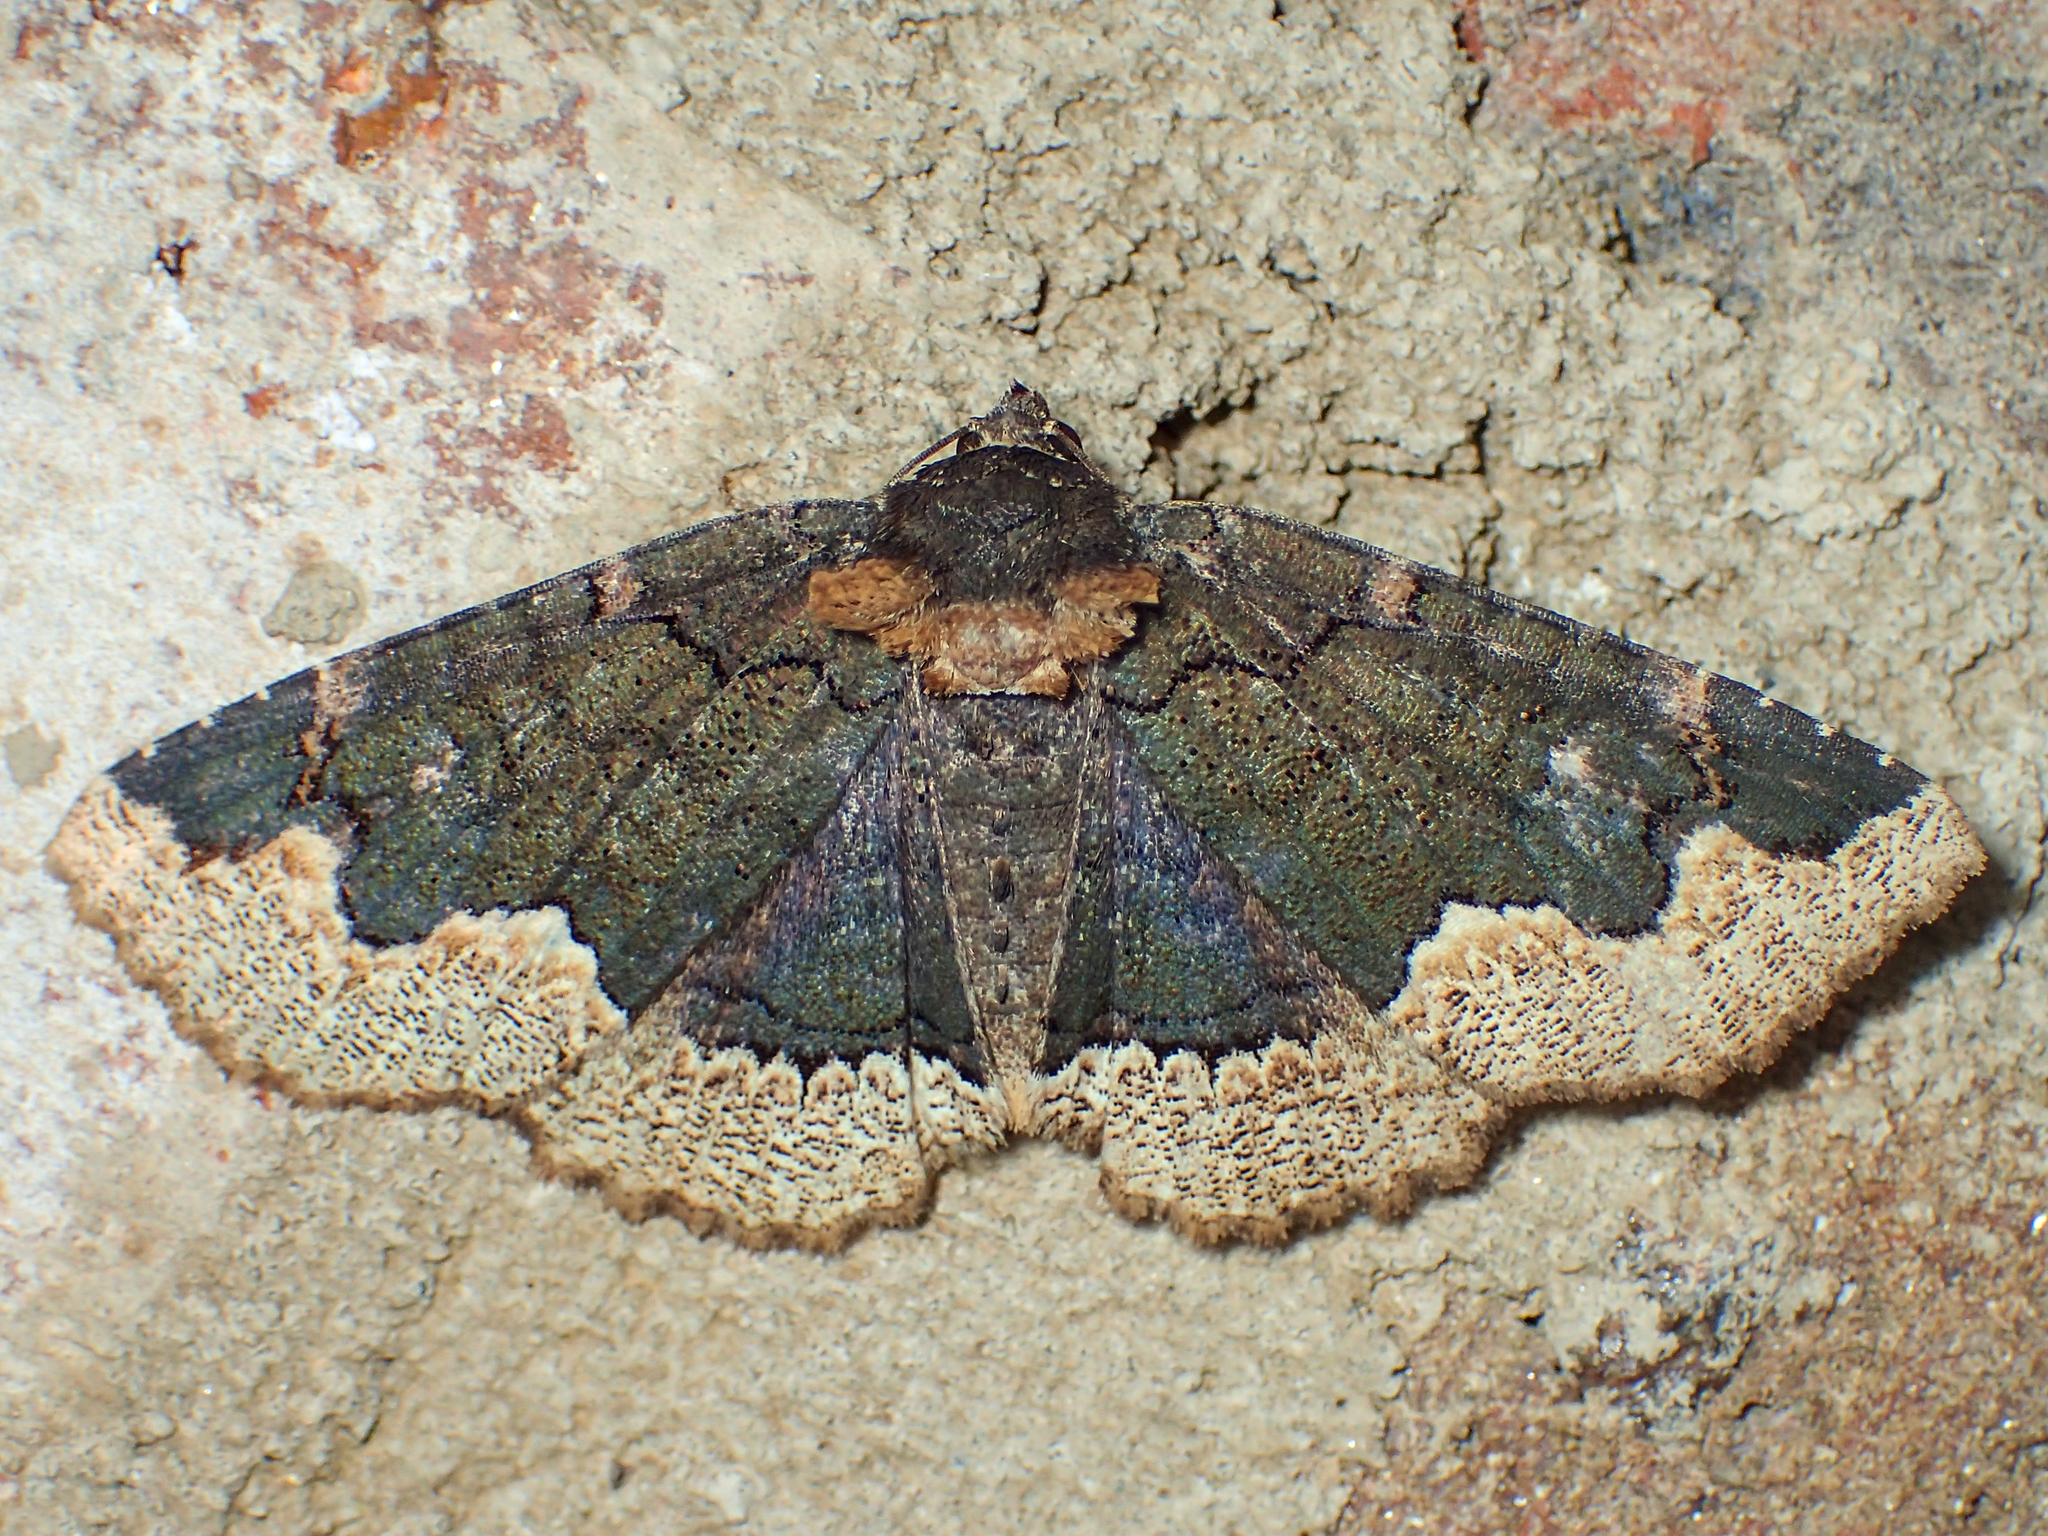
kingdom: Animalia
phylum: Arthropoda
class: Insecta
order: Lepidoptera
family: Erebidae
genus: Zale
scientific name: Zale horrida
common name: Horrid zale moth
